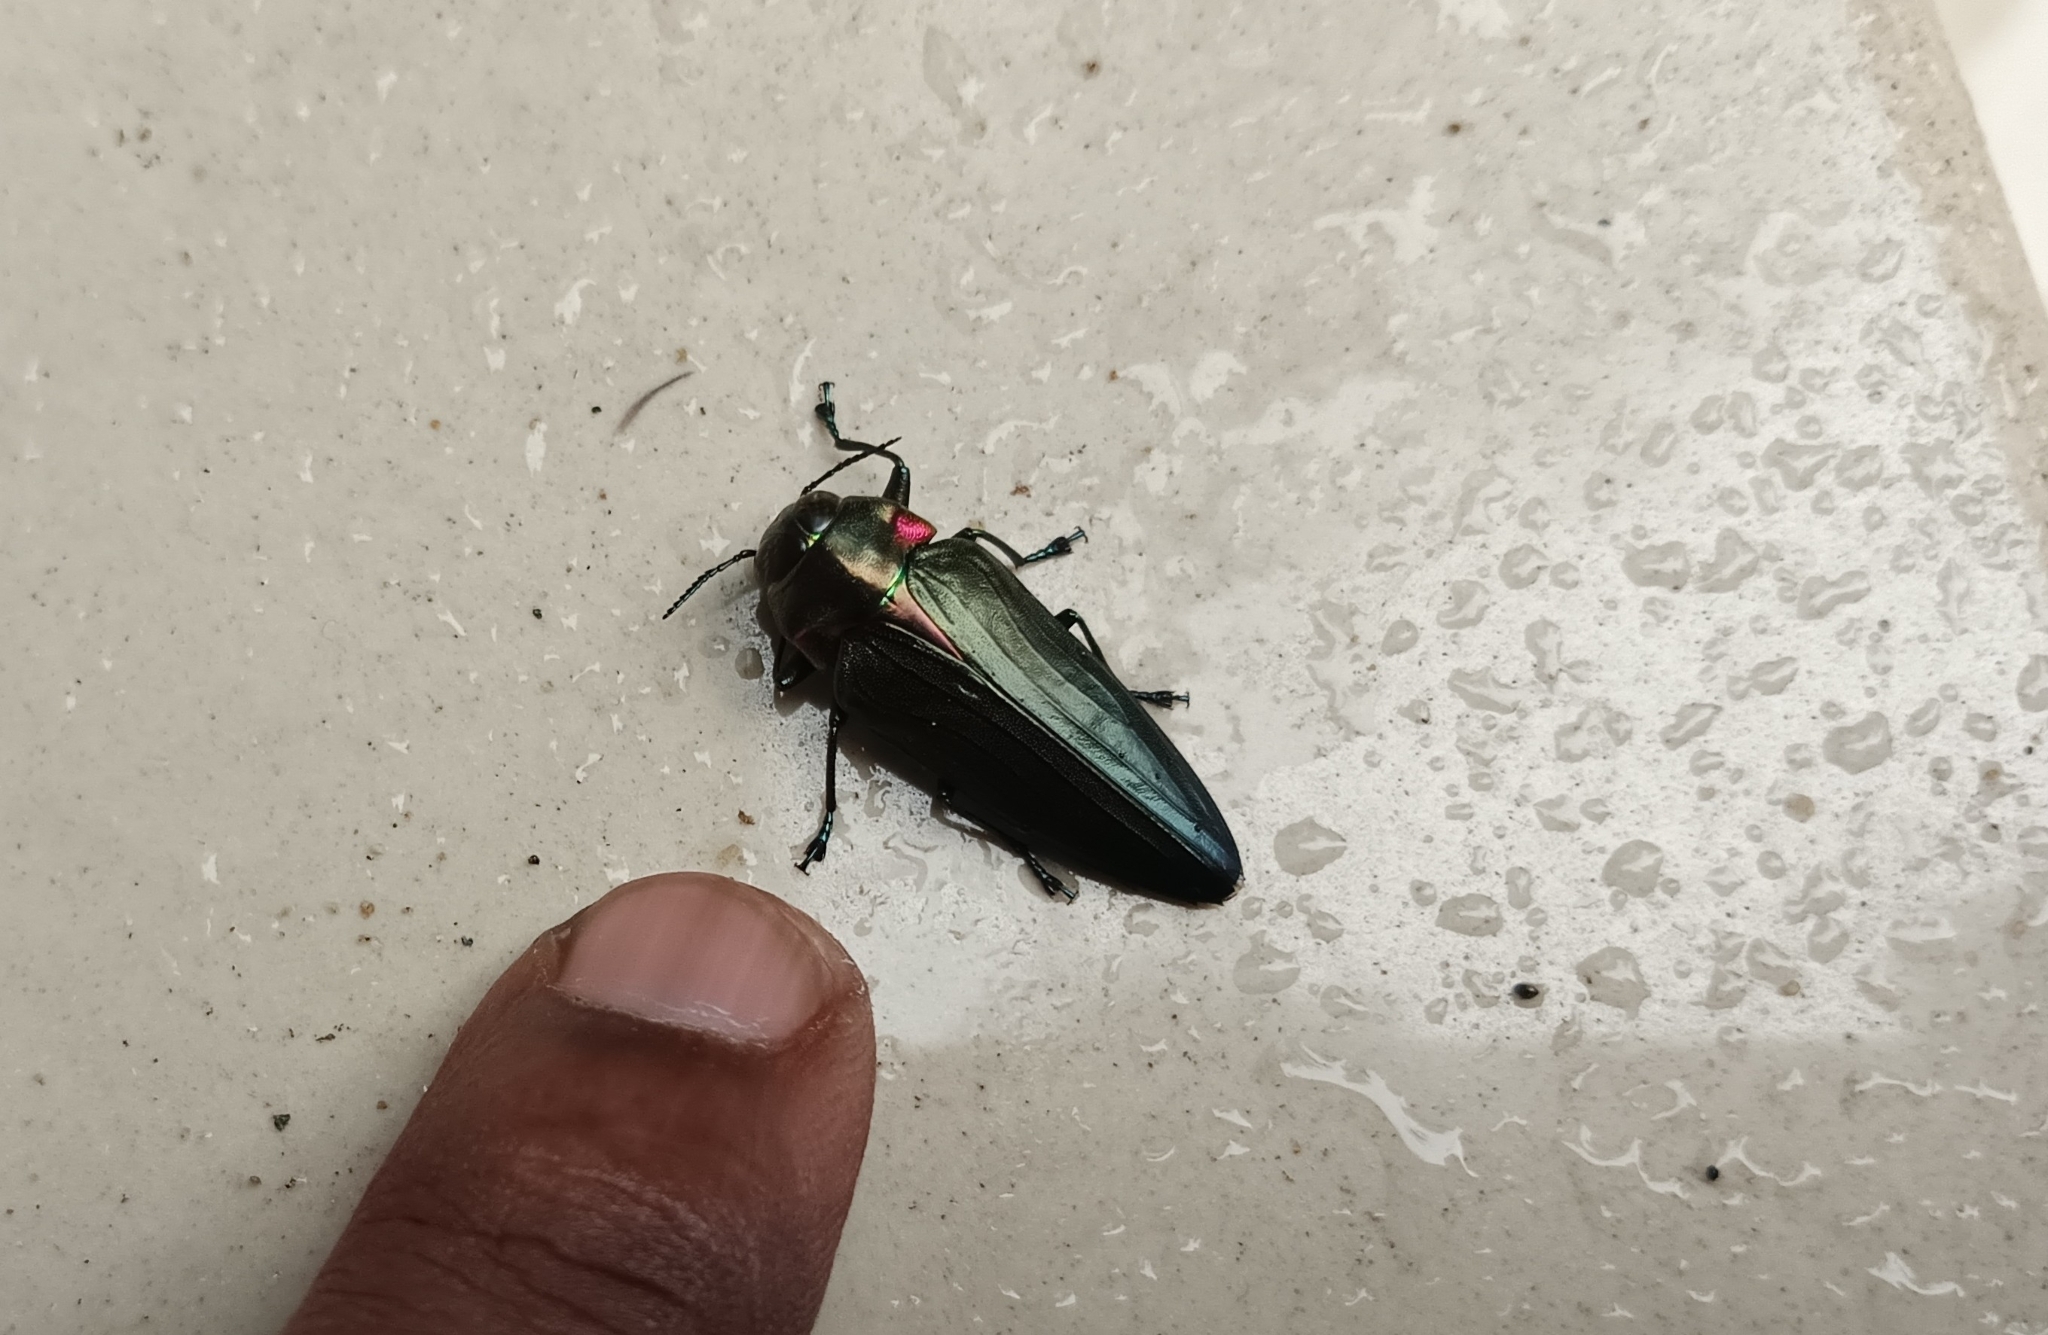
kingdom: Animalia
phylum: Arthropoda
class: Insecta
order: Coleoptera
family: Buprestidae
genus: Belionota
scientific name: Belionota prasina
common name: Jewel beetle
